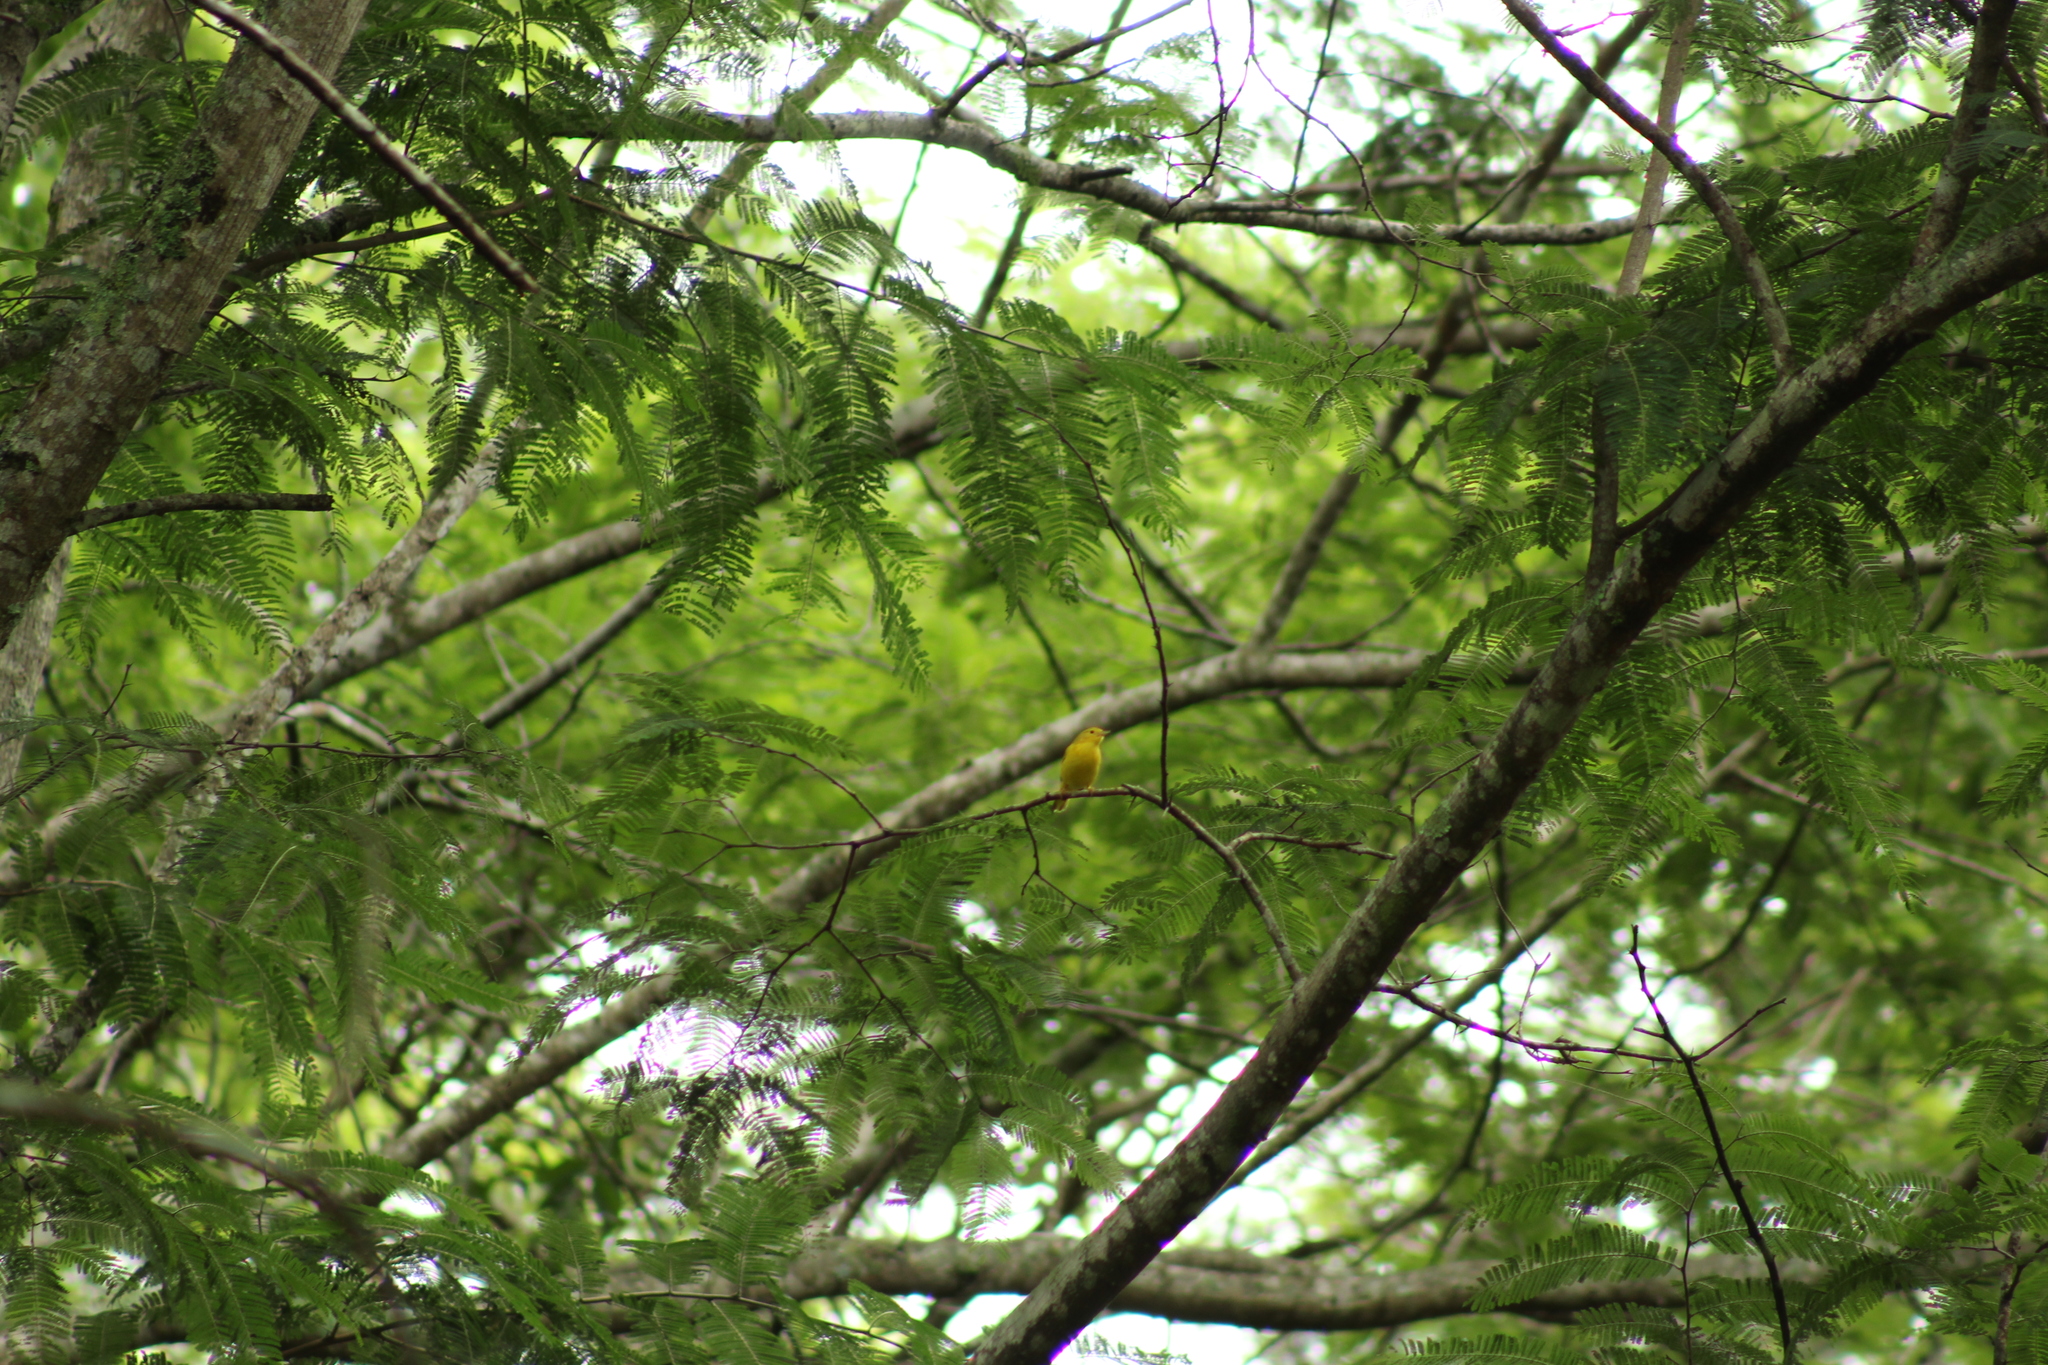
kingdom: Animalia
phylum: Chordata
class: Aves
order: Passeriformes
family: Parulidae
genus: Setophaga
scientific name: Setophaga petechia
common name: Yellow warbler
